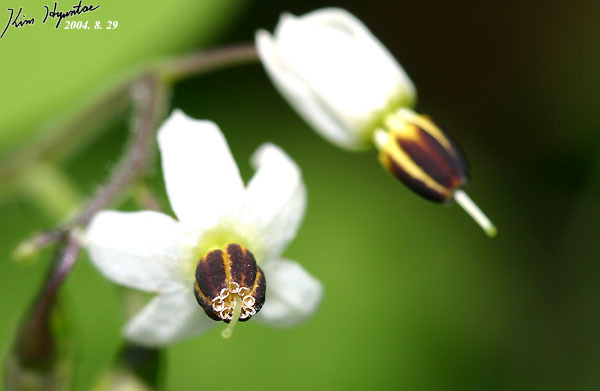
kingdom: Plantae
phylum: Tracheophyta
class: Magnoliopsida
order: Solanales
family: Solanaceae
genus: Solanum
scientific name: Solanum lyratum
